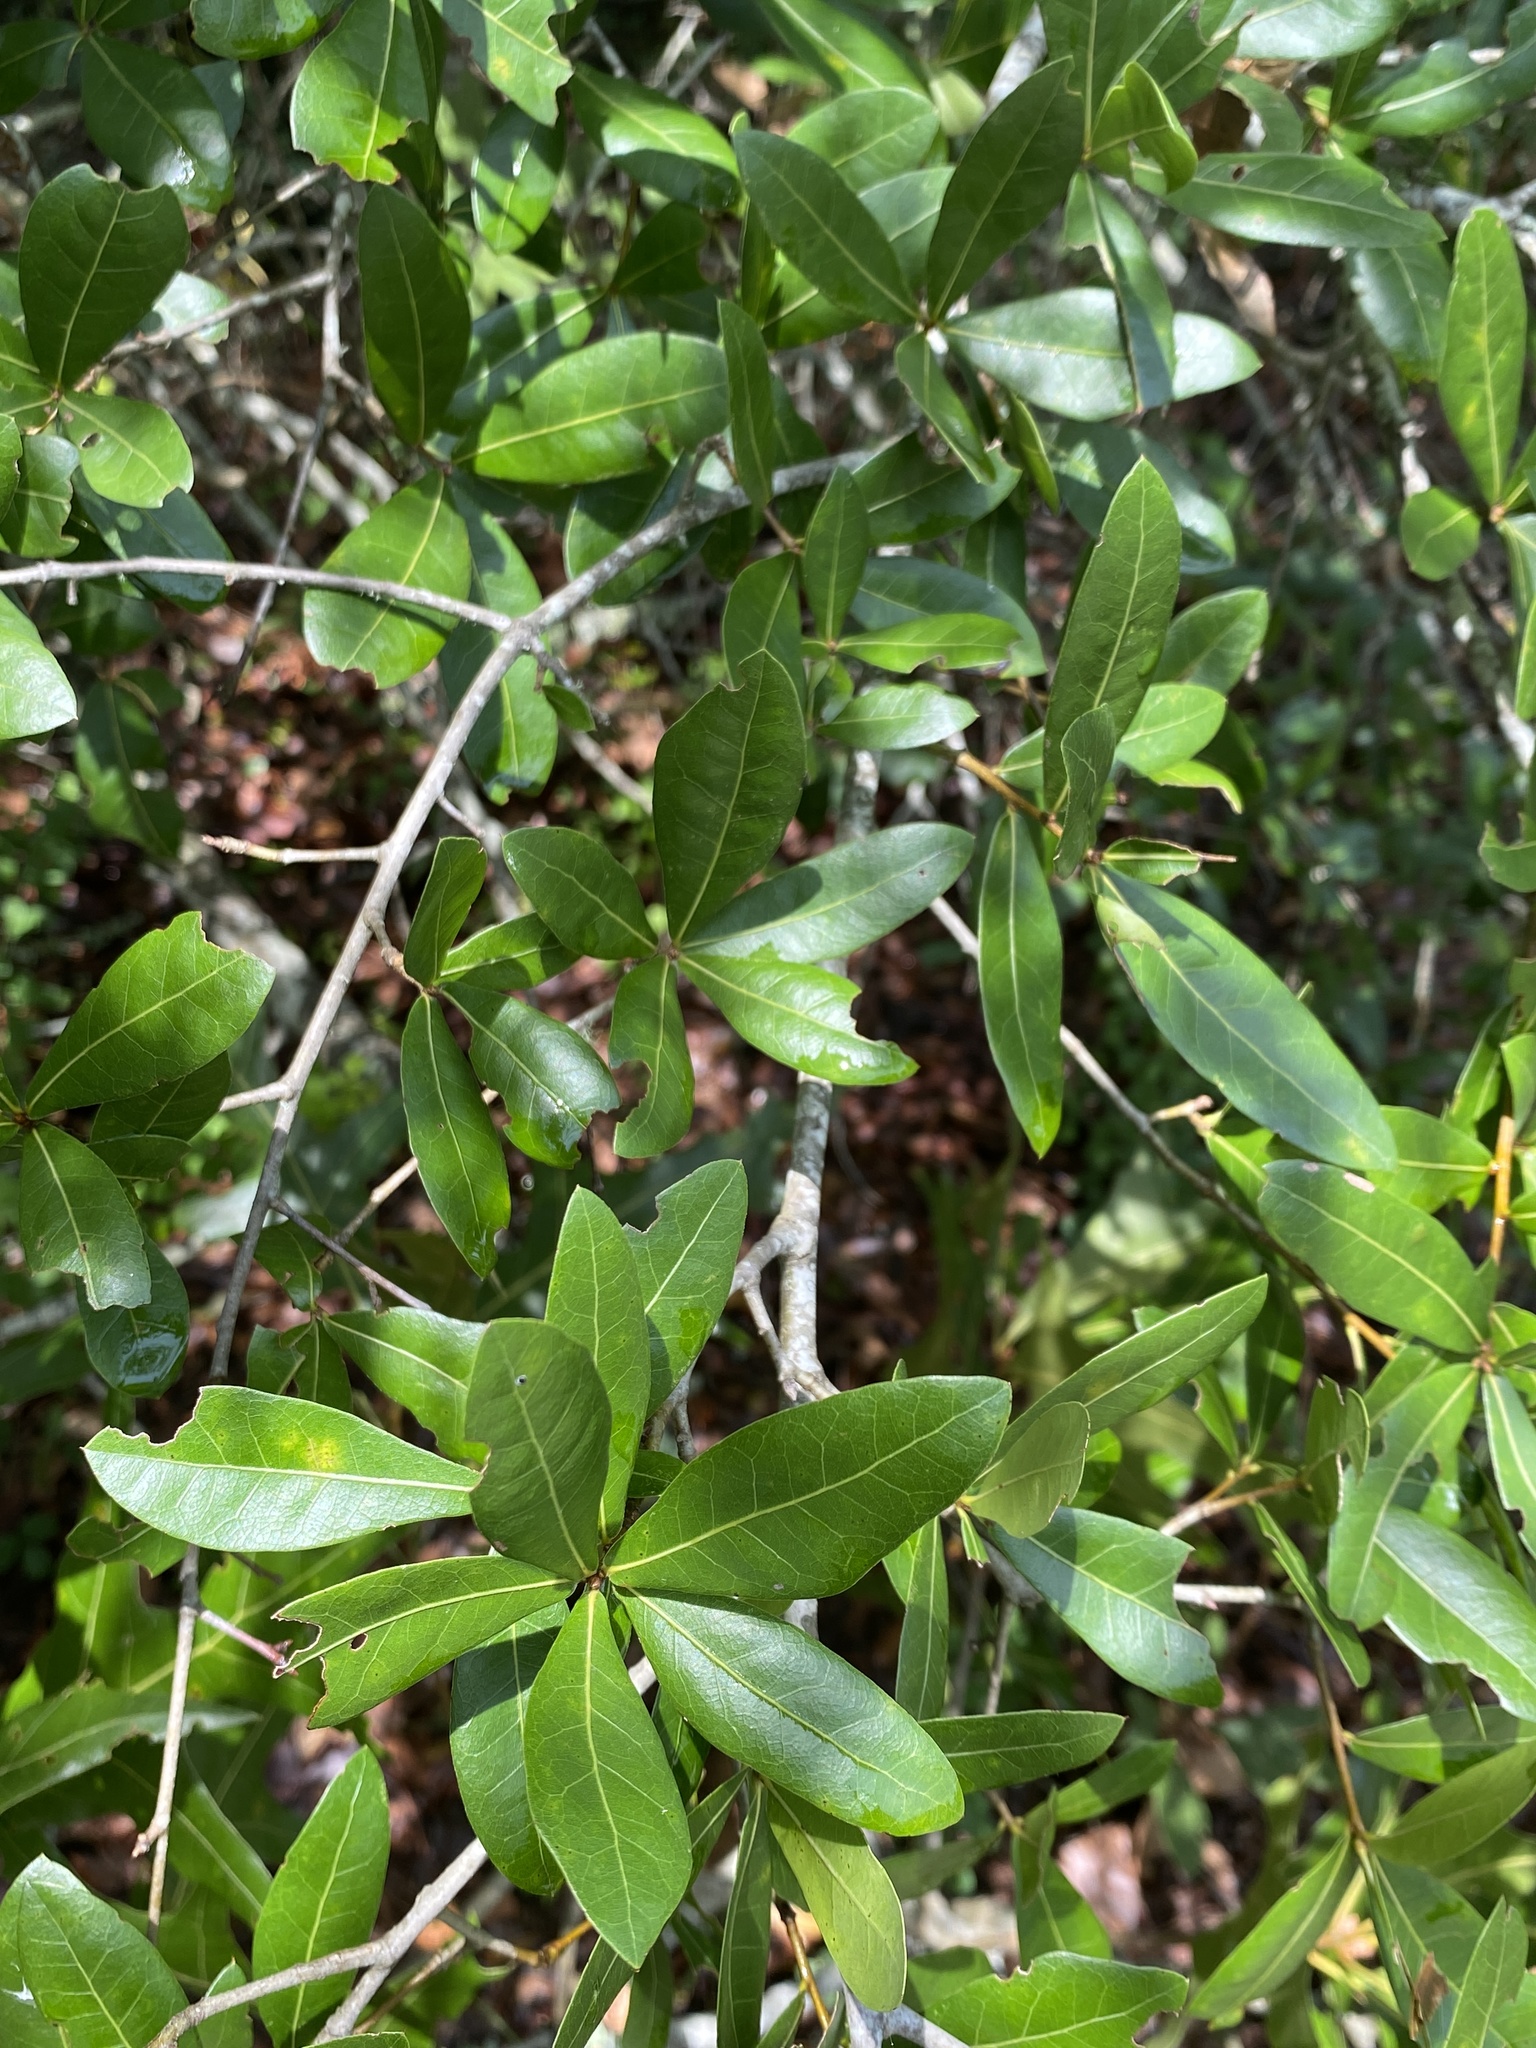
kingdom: Plantae
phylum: Tracheophyta
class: Magnoliopsida
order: Fagales
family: Fagaceae
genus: Quercus
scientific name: Quercus hemisphaerica
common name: Darlington oak
